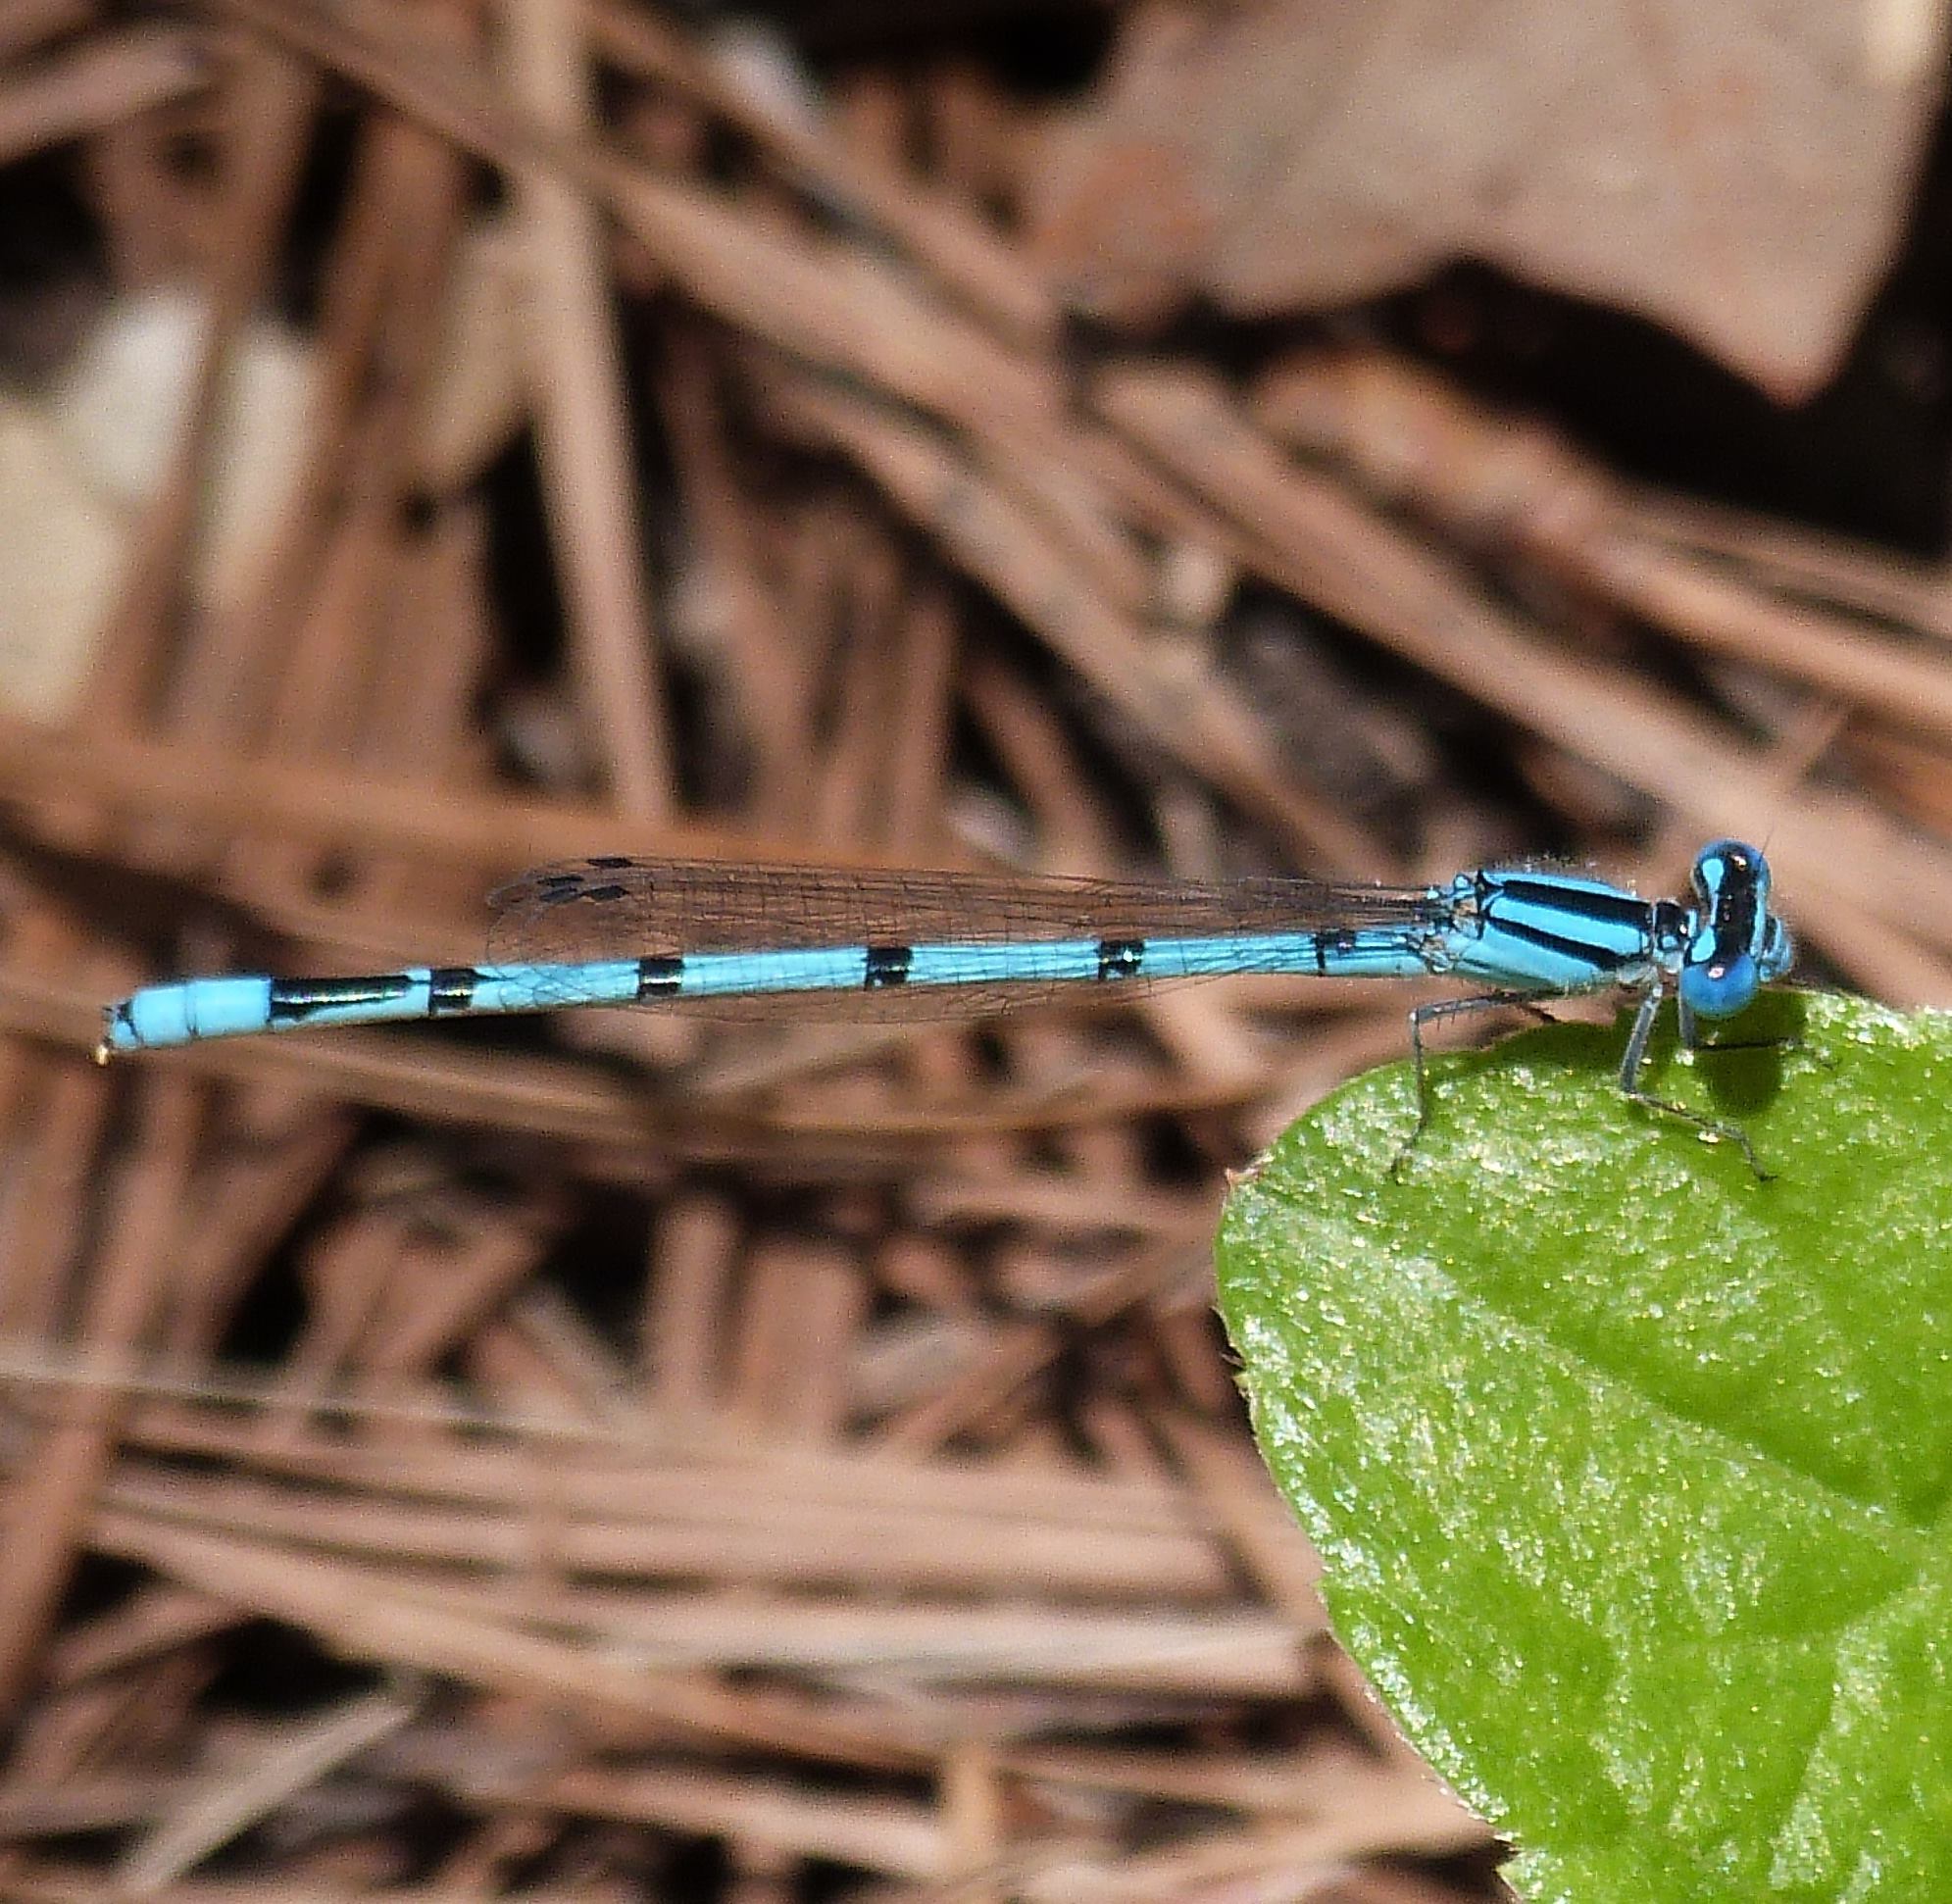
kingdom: Animalia
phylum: Arthropoda
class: Insecta
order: Odonata
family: Coenagrionidae
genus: Enallagma
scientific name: Enallagma doubledayi
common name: Atlantic bluet
